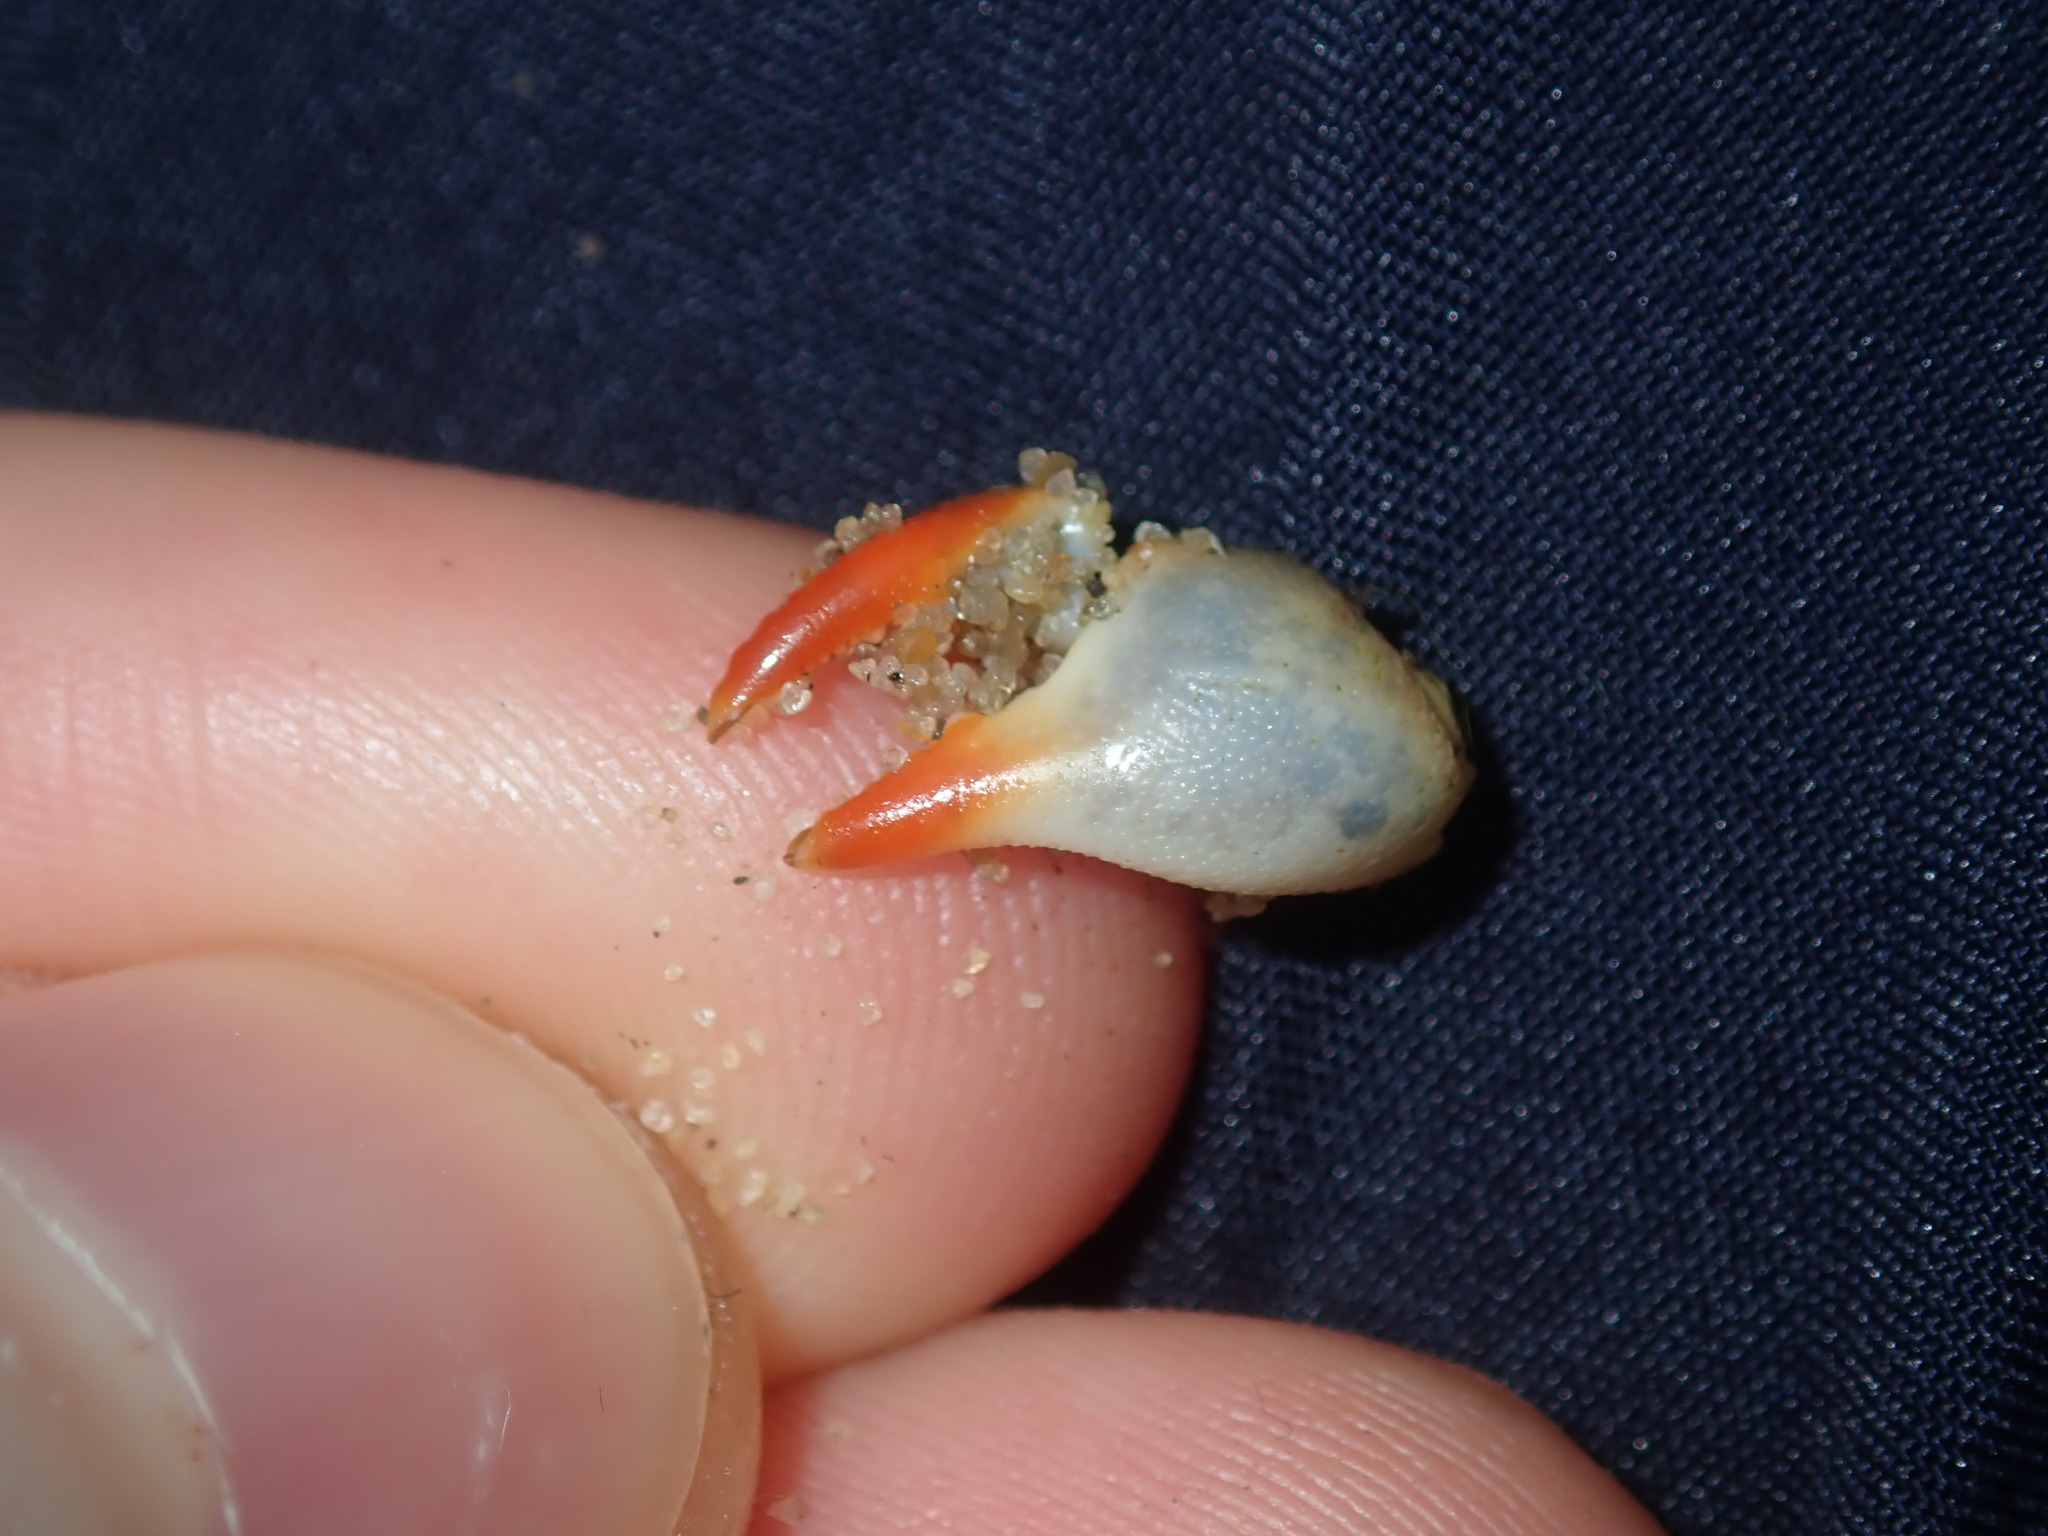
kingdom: Animalia
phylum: Arthropoda
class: Malacostraca
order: Decapoda
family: Sesarmidae
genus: Parasesarma
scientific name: Parasesarma erythodactylum
